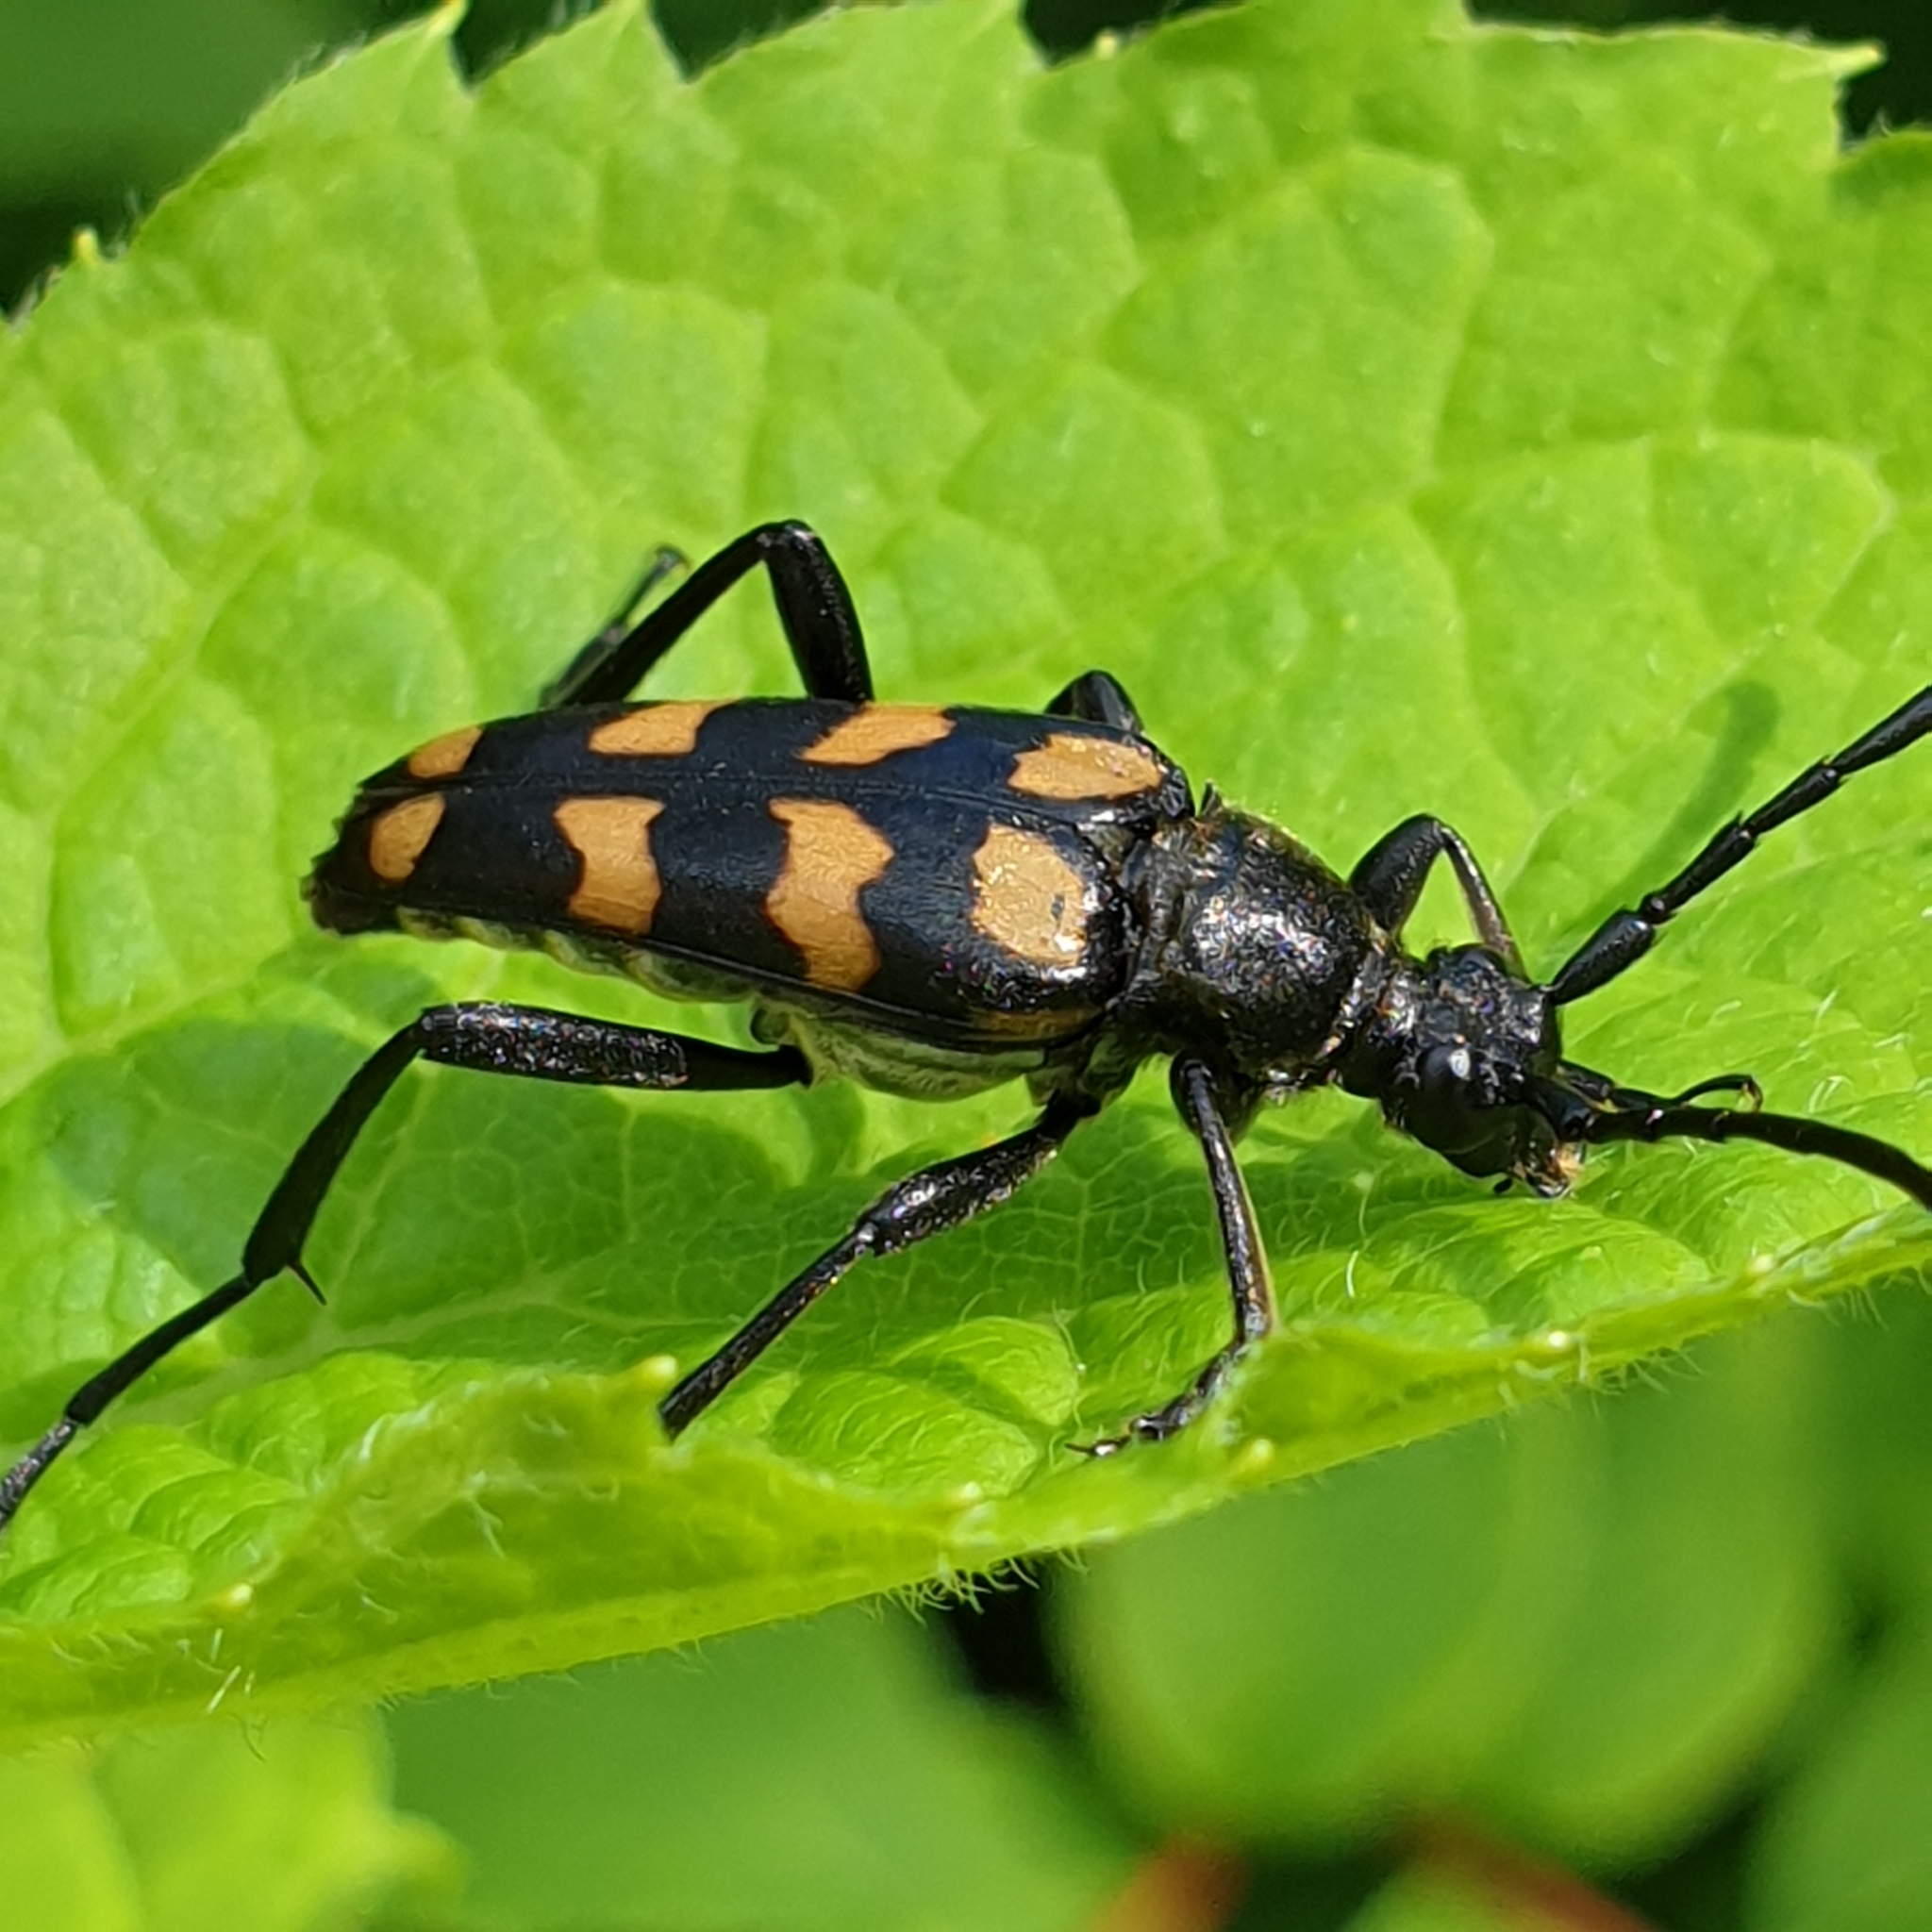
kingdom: Animalia
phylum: Arthropoda
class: Insecta
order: Coleoptera
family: Cerambycidae
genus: Leptura
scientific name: Leptura quadrifasciata
